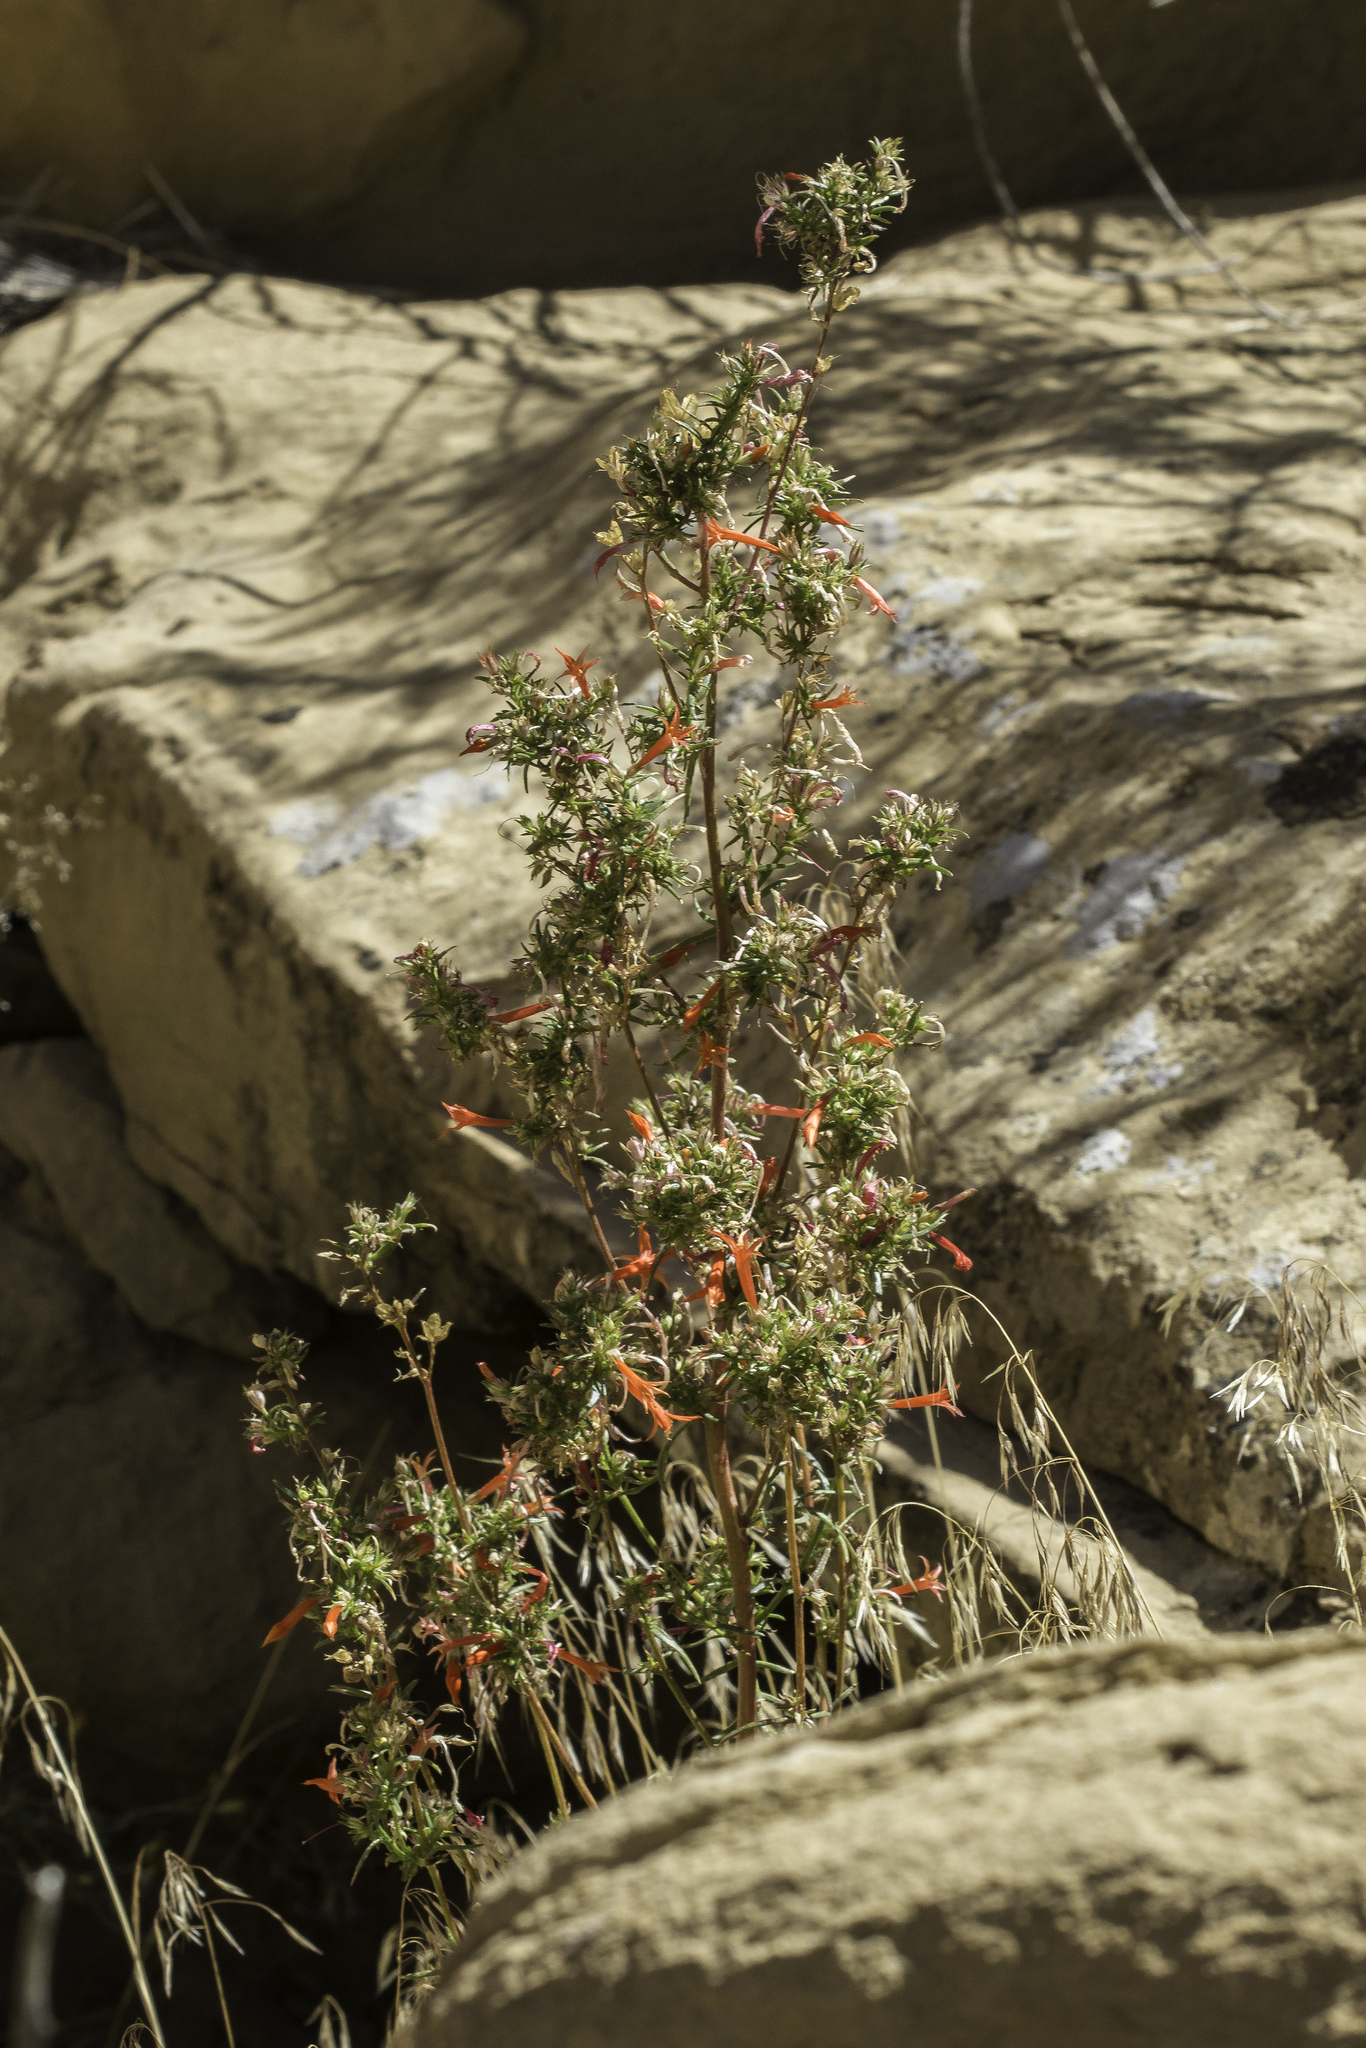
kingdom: Plantae
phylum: Tracheophyta
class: Magnoliopsida
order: Ericales
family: Polemoniaceae
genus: Ipomopsis
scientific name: Ipomopsis aggregata
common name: Scarlet gilia
